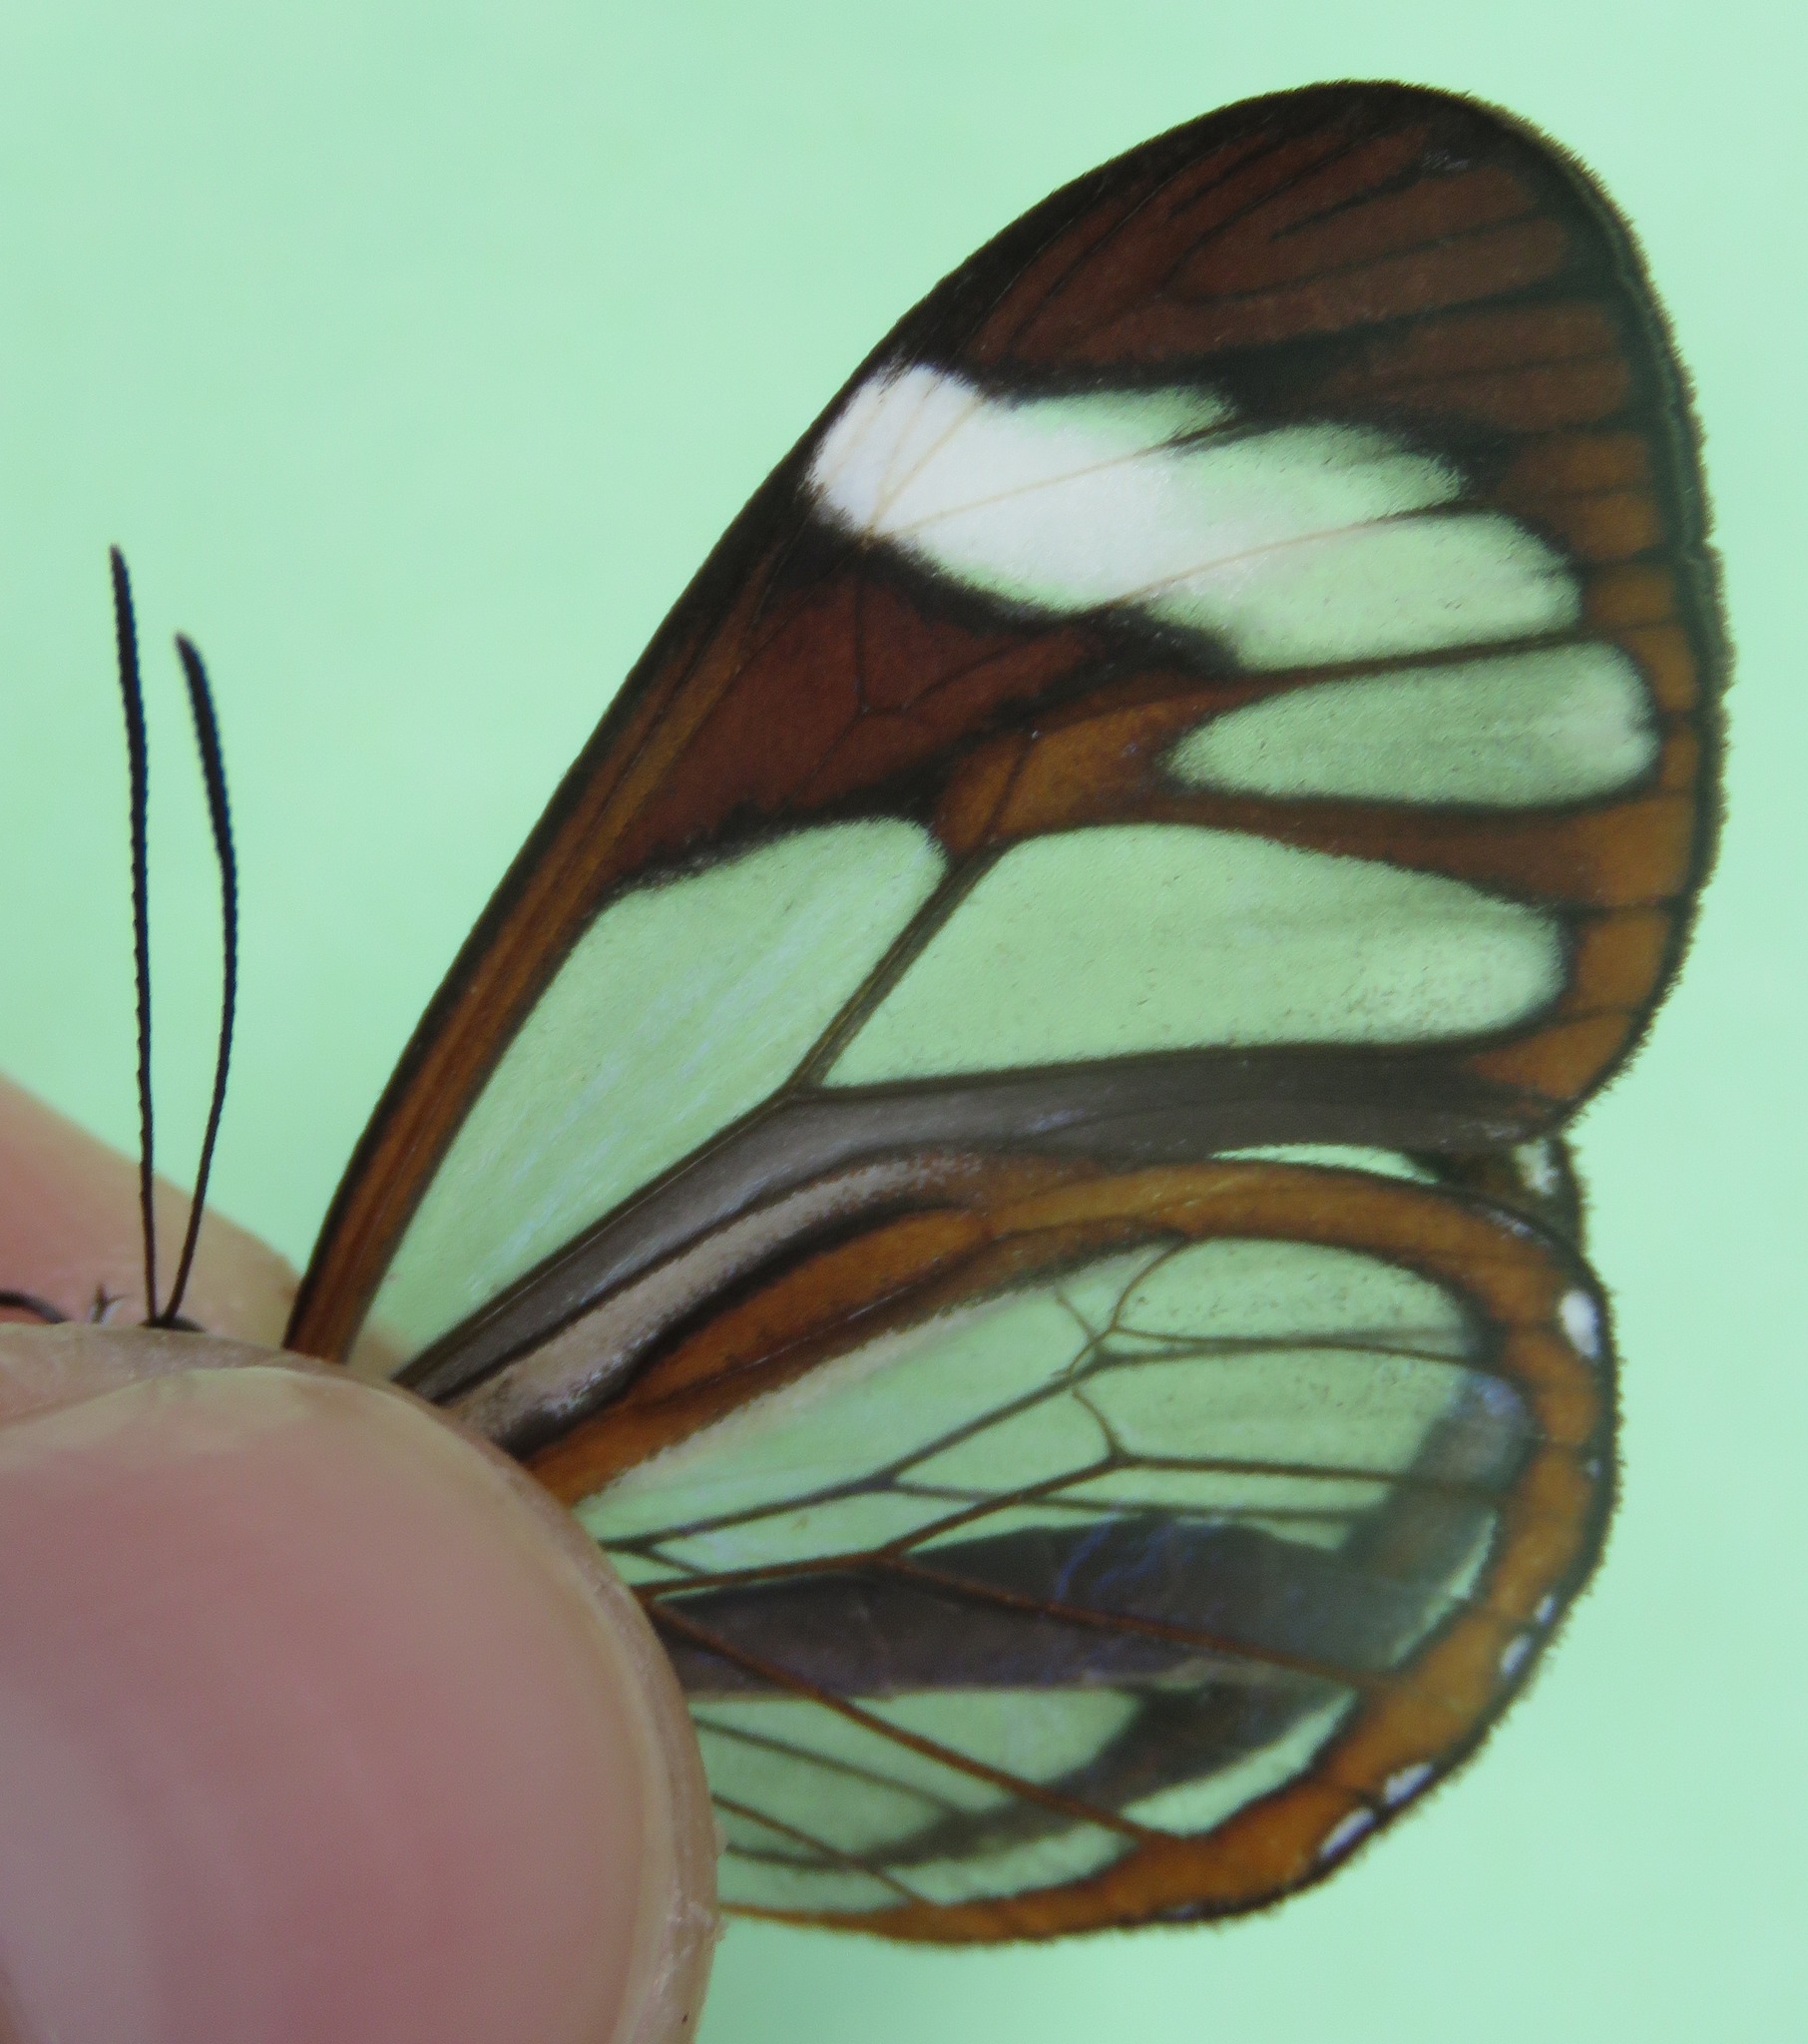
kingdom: Animalia
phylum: Arthropoda
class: Insecta
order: Lepidoptera
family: Nymphalidae
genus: Ithomia
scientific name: Ithomia patilla
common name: Patilla clearwing
